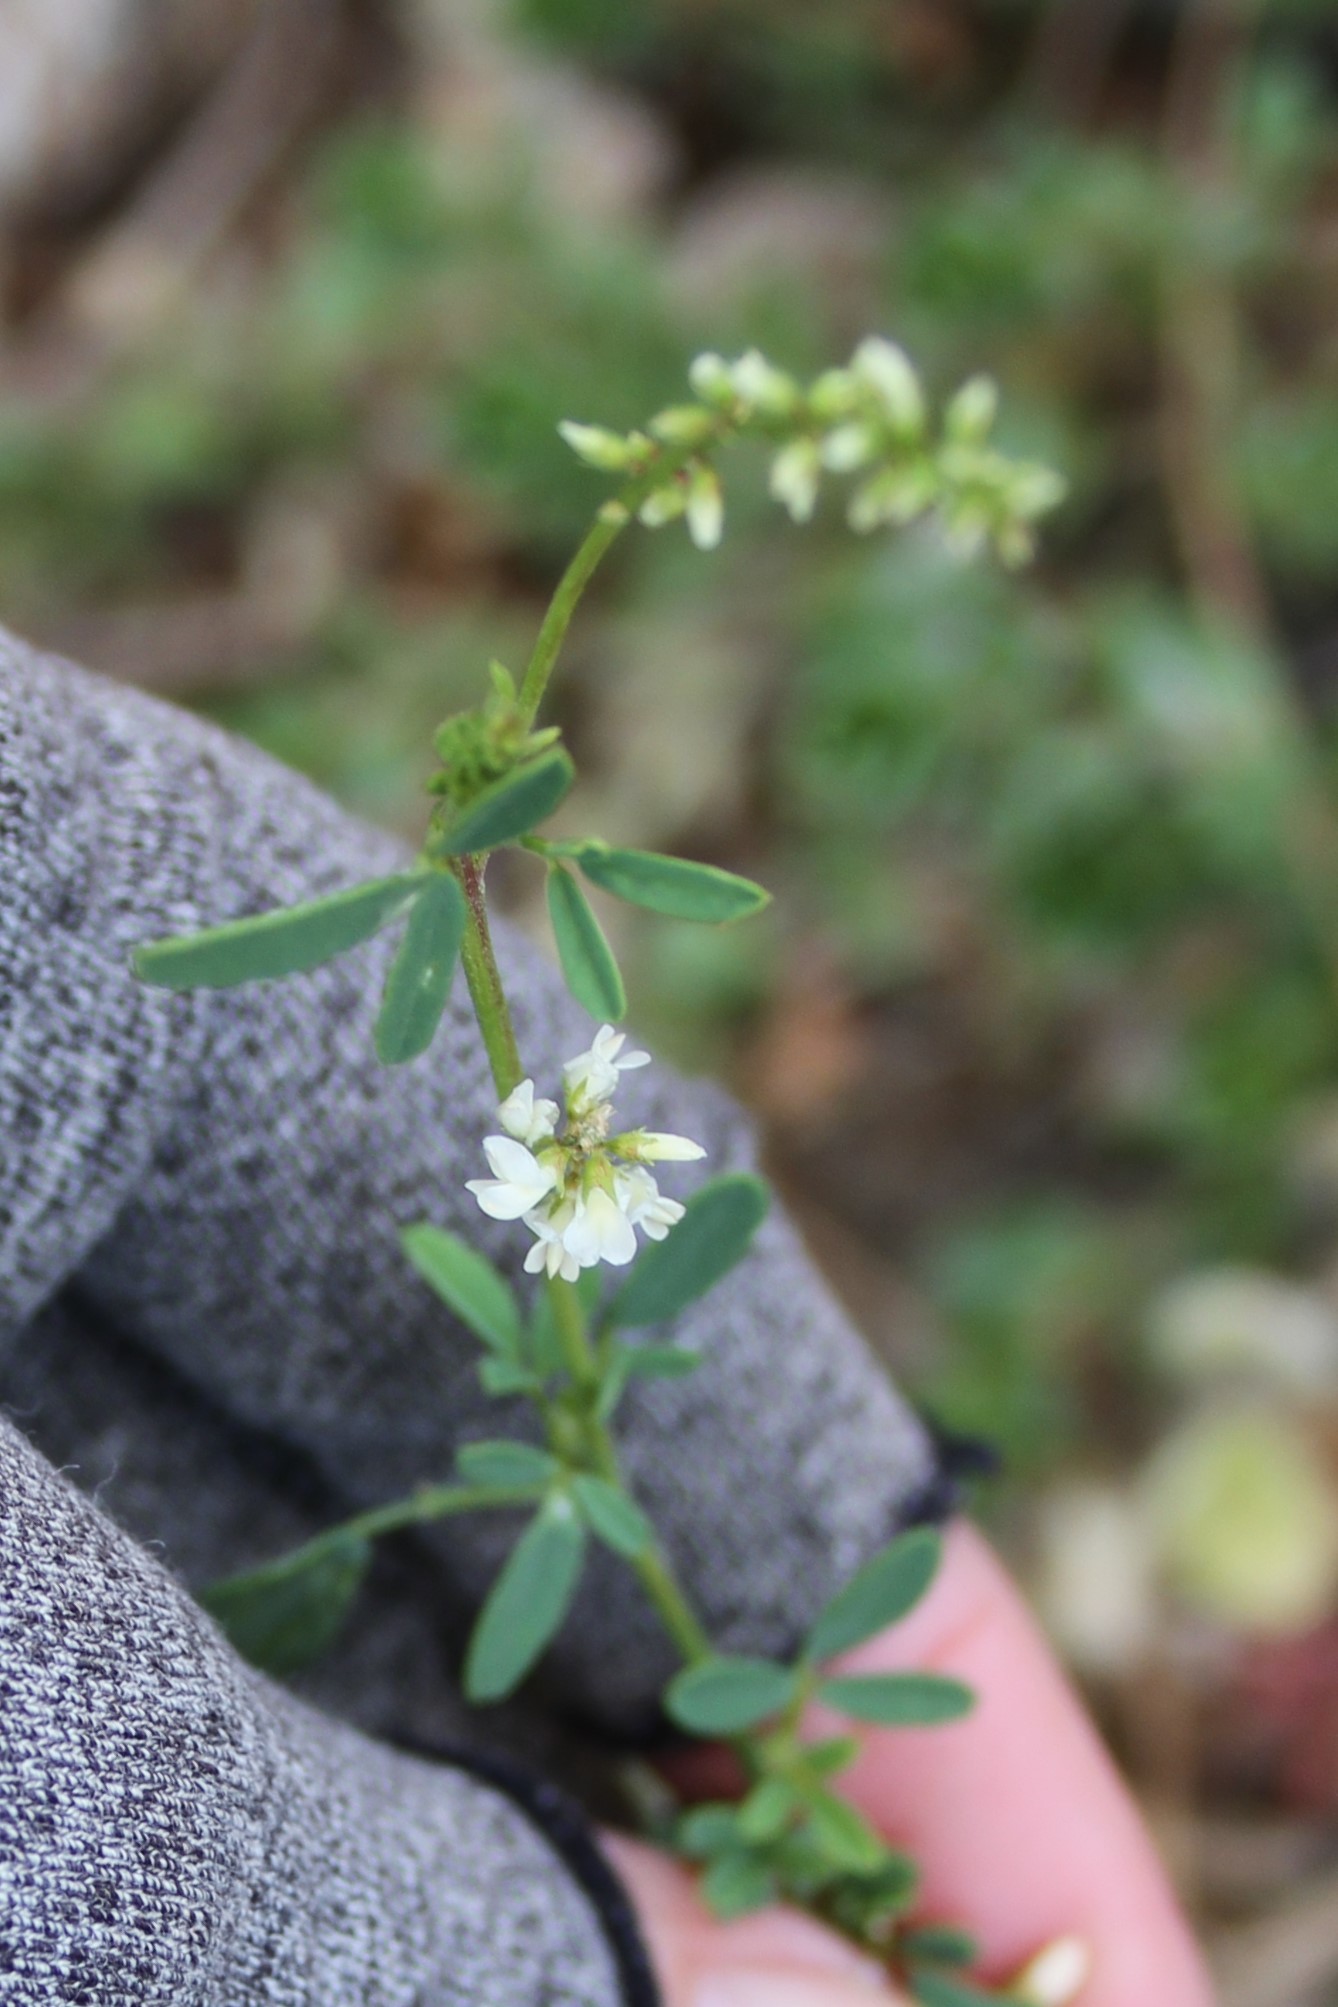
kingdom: Plantae
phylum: Tracheophyta
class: Magnoliopsida
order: Fabales
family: Fabaceae
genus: Melilotus
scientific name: Melilotus albus
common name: White melilot
